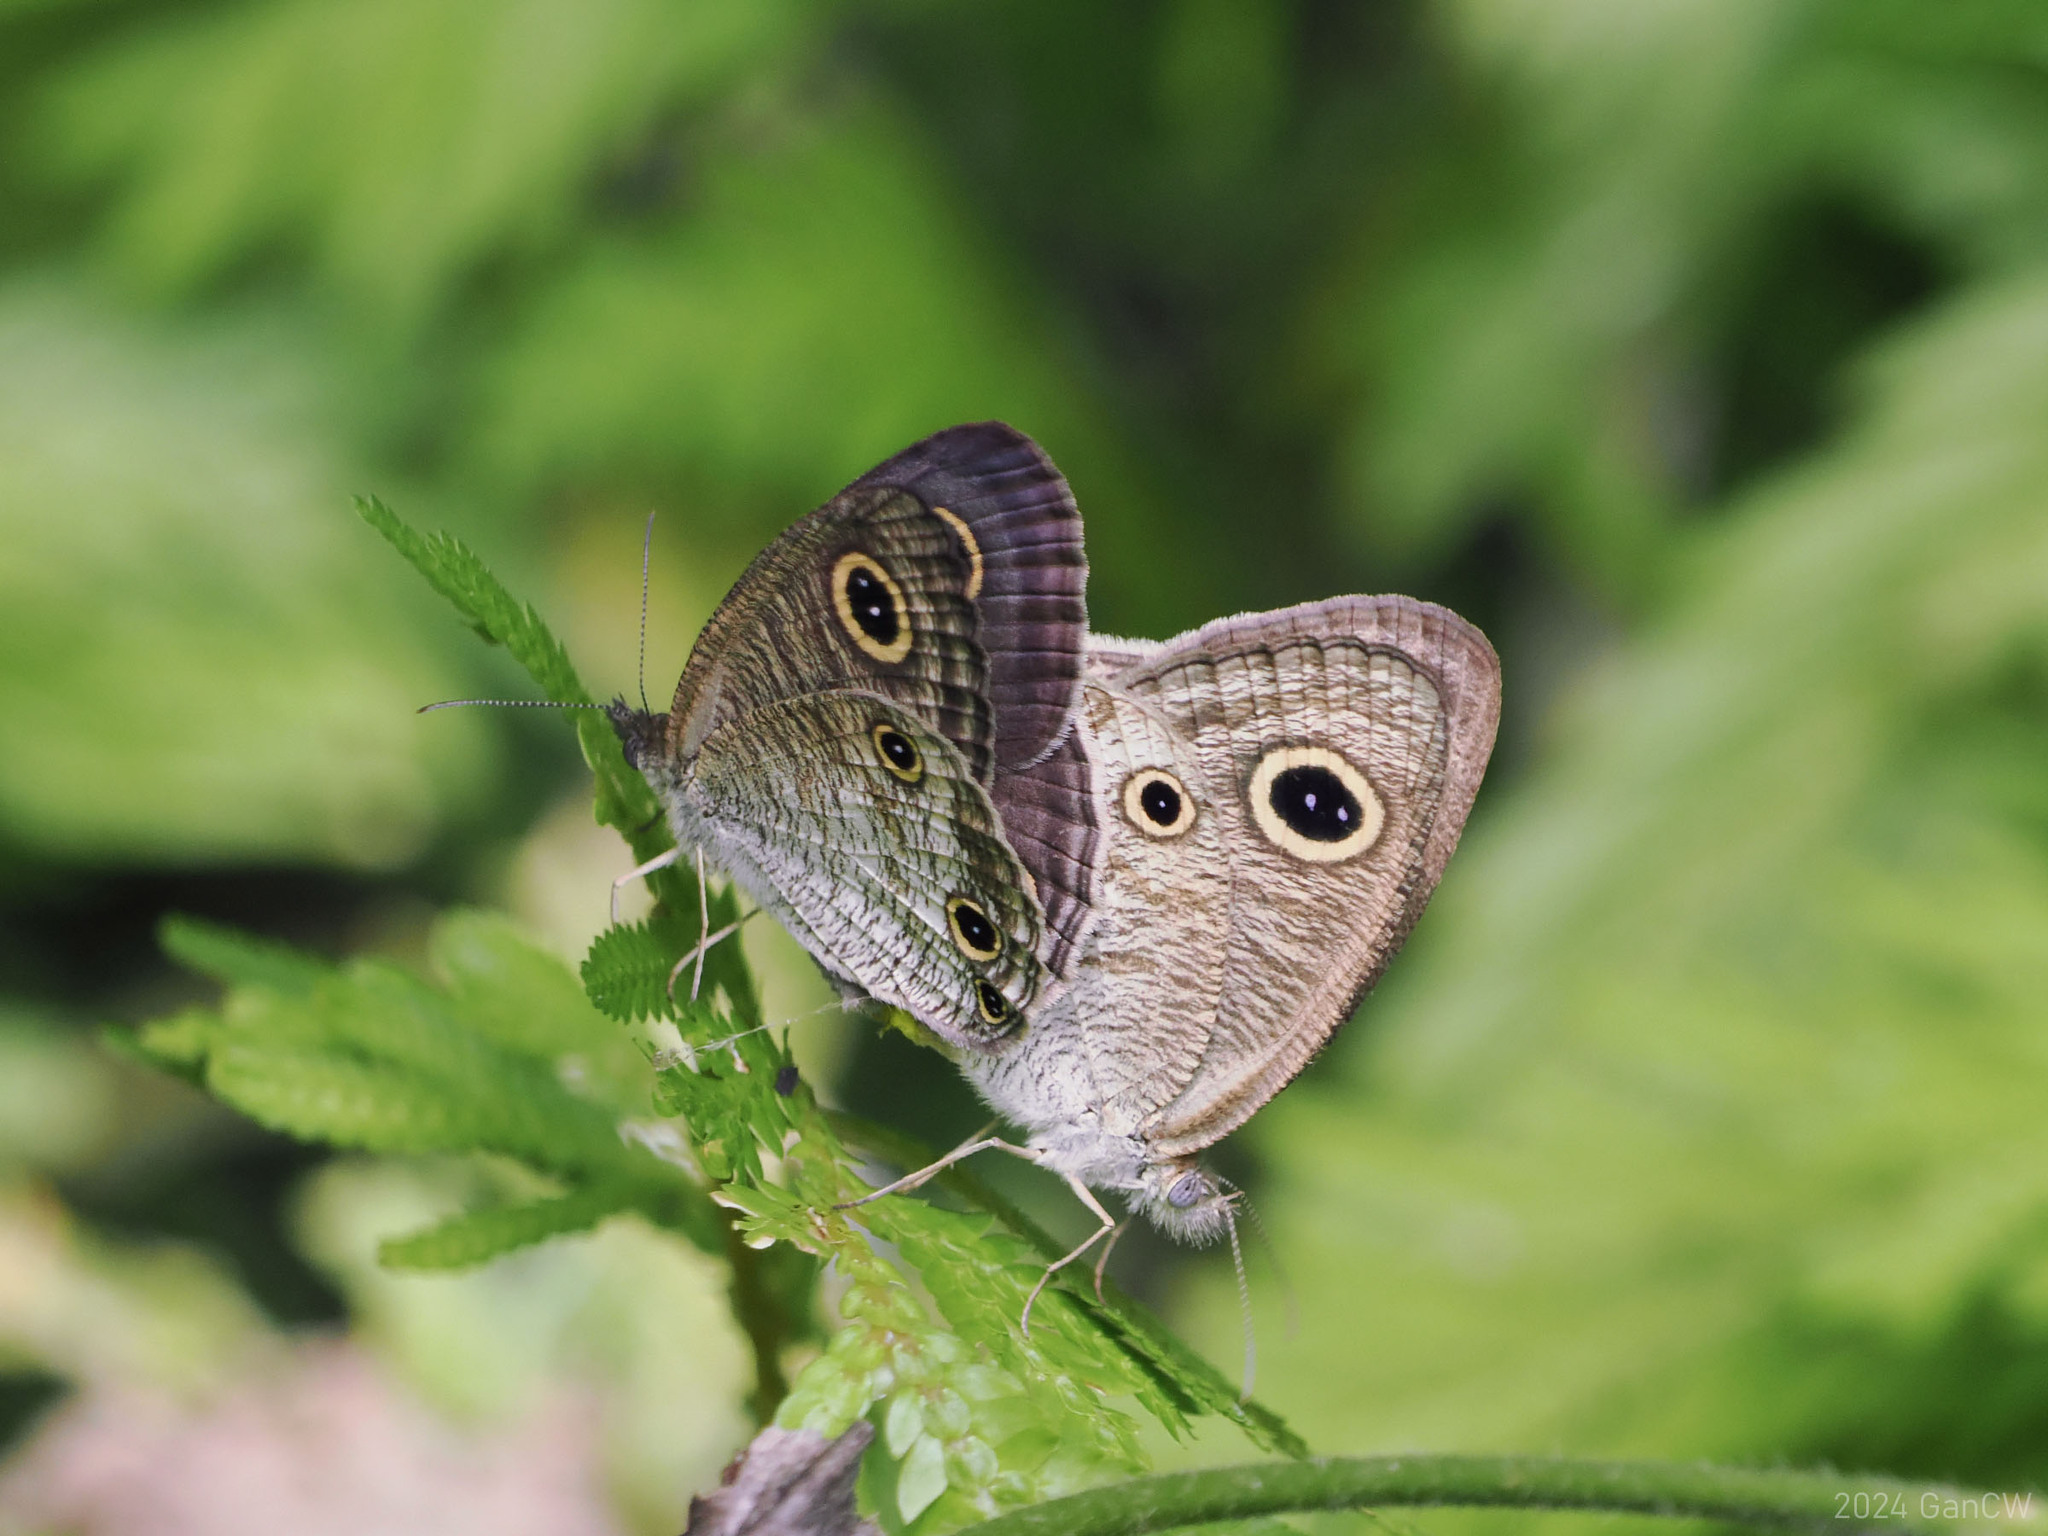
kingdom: Animalia
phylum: Arthropoda
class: Insecta
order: Lepidoptera
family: Nymphalidae
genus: Ypthima
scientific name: Ypthima pandocus
